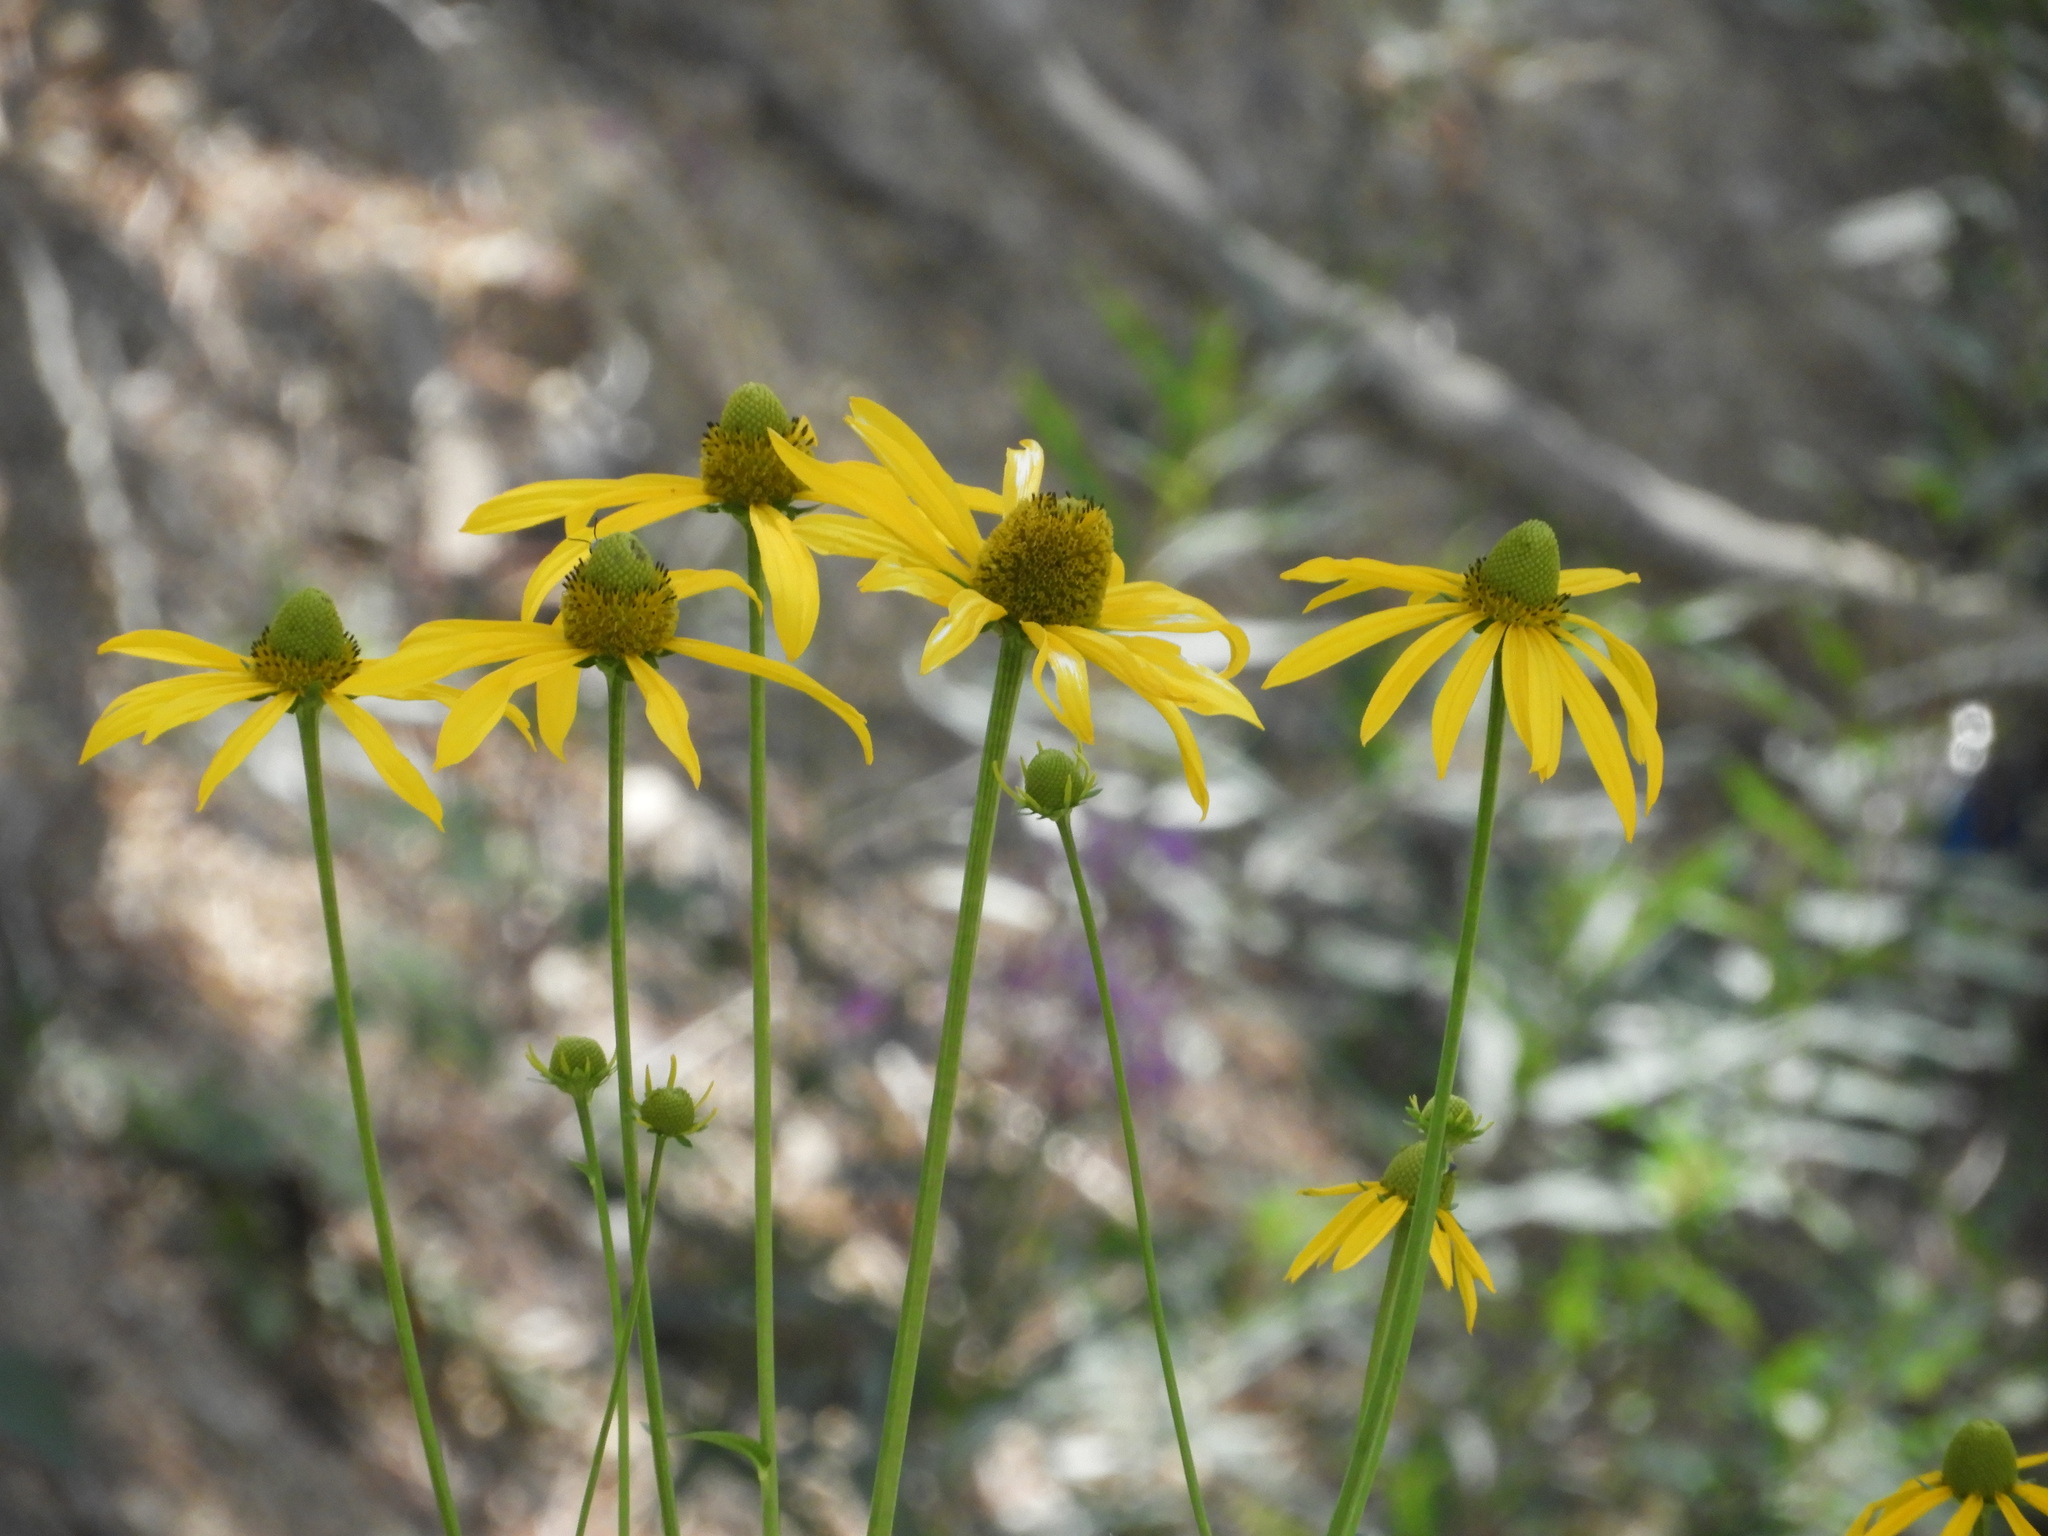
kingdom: Plantae
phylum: Tracheophyta
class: Magnoliopsida
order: Asterales
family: Asteraceae
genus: Rudbeckia
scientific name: Rudbeckia laciniata
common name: Coneflower
